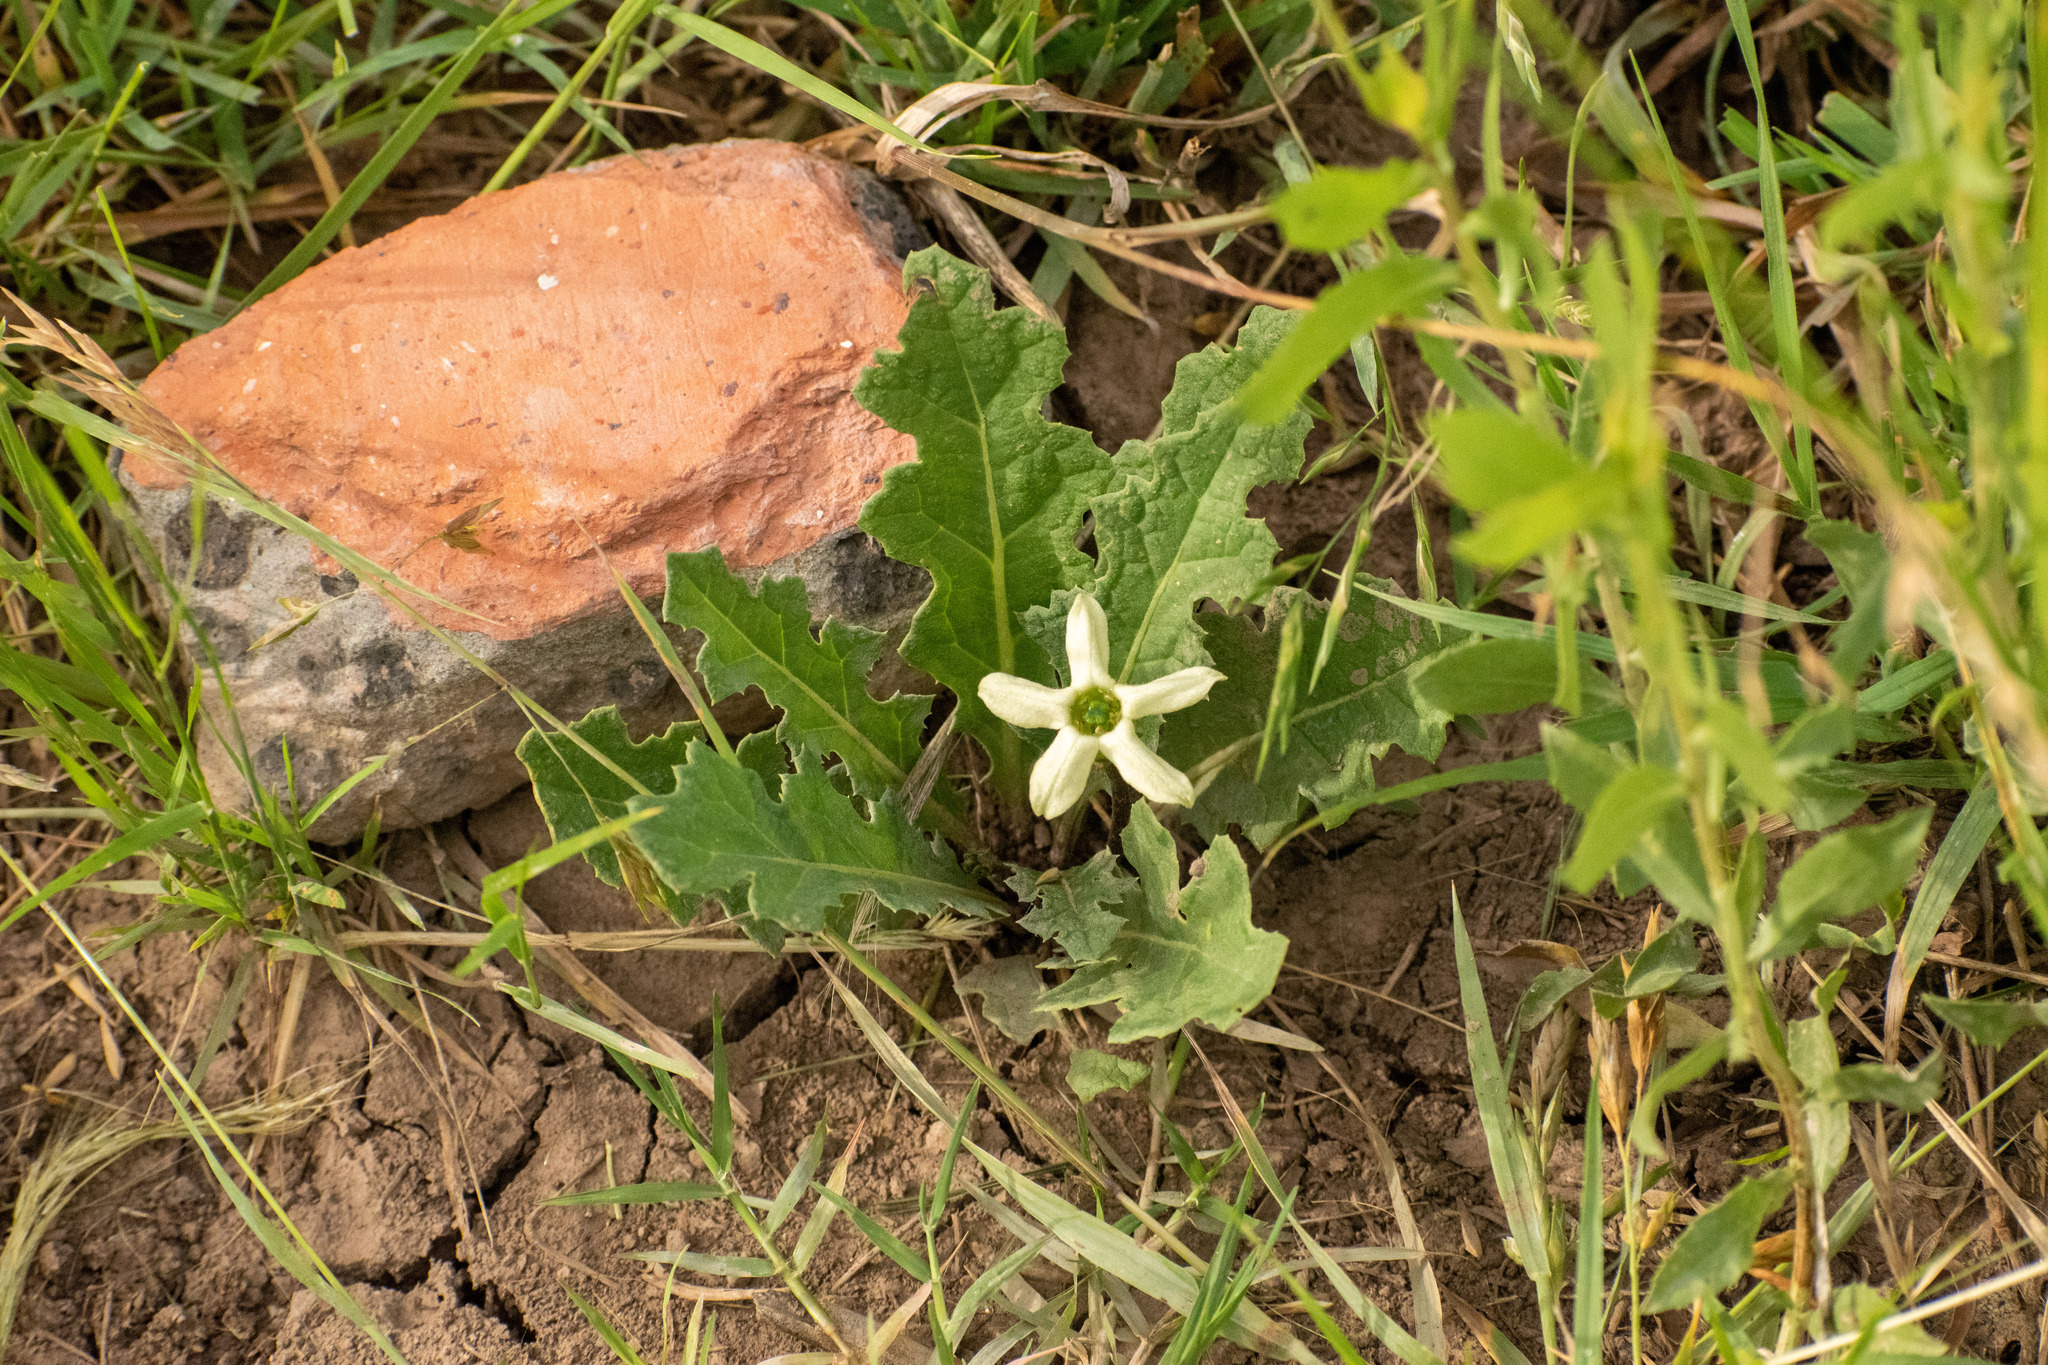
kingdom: Plantae
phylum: Tracheophyta
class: Magnoliopsida
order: Solanales
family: Solanaceae
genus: Jaborosa
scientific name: Jaborosa runcinata
